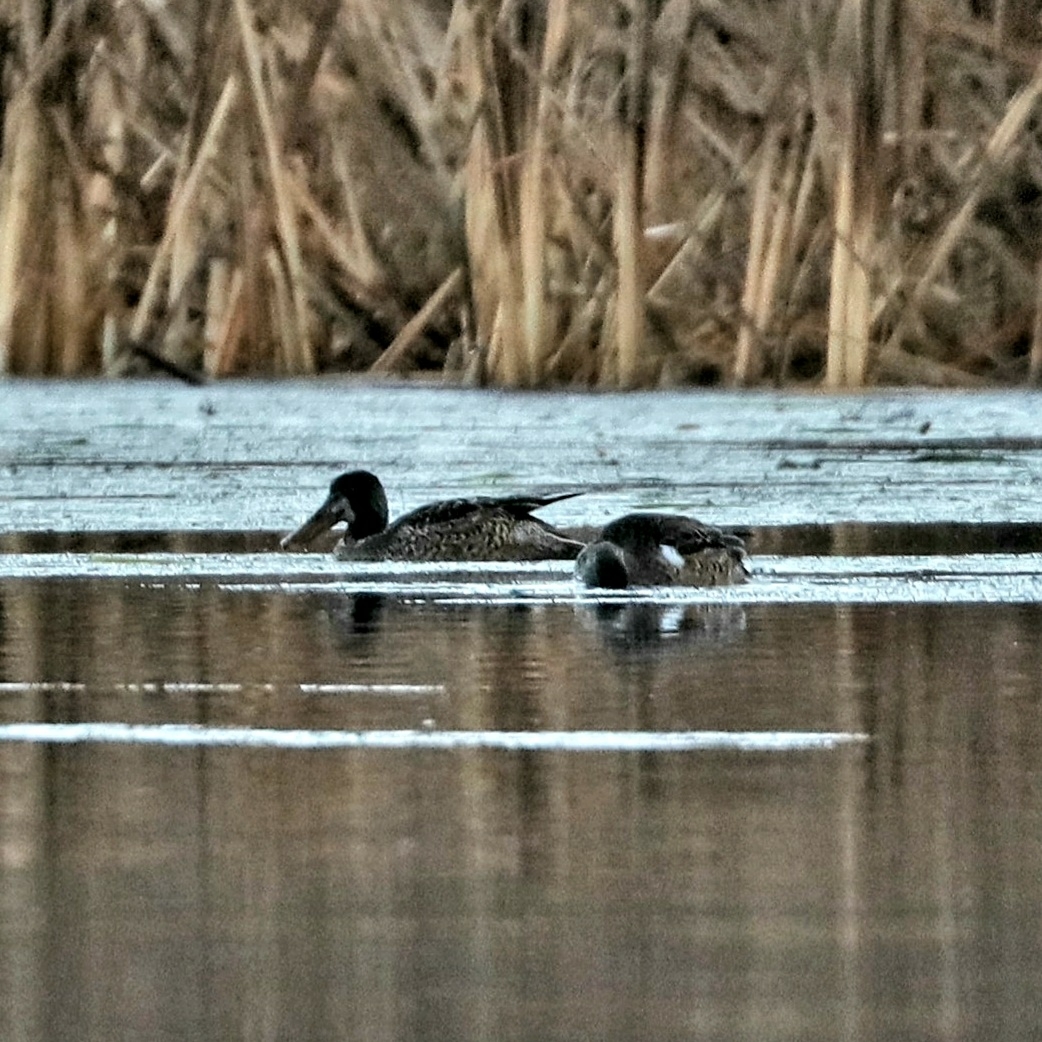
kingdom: Animalia
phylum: Chordata
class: Aves
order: Anseriformes
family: Anatidae
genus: Spatula
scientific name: Spatula clypeata
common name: Northern shoveler
